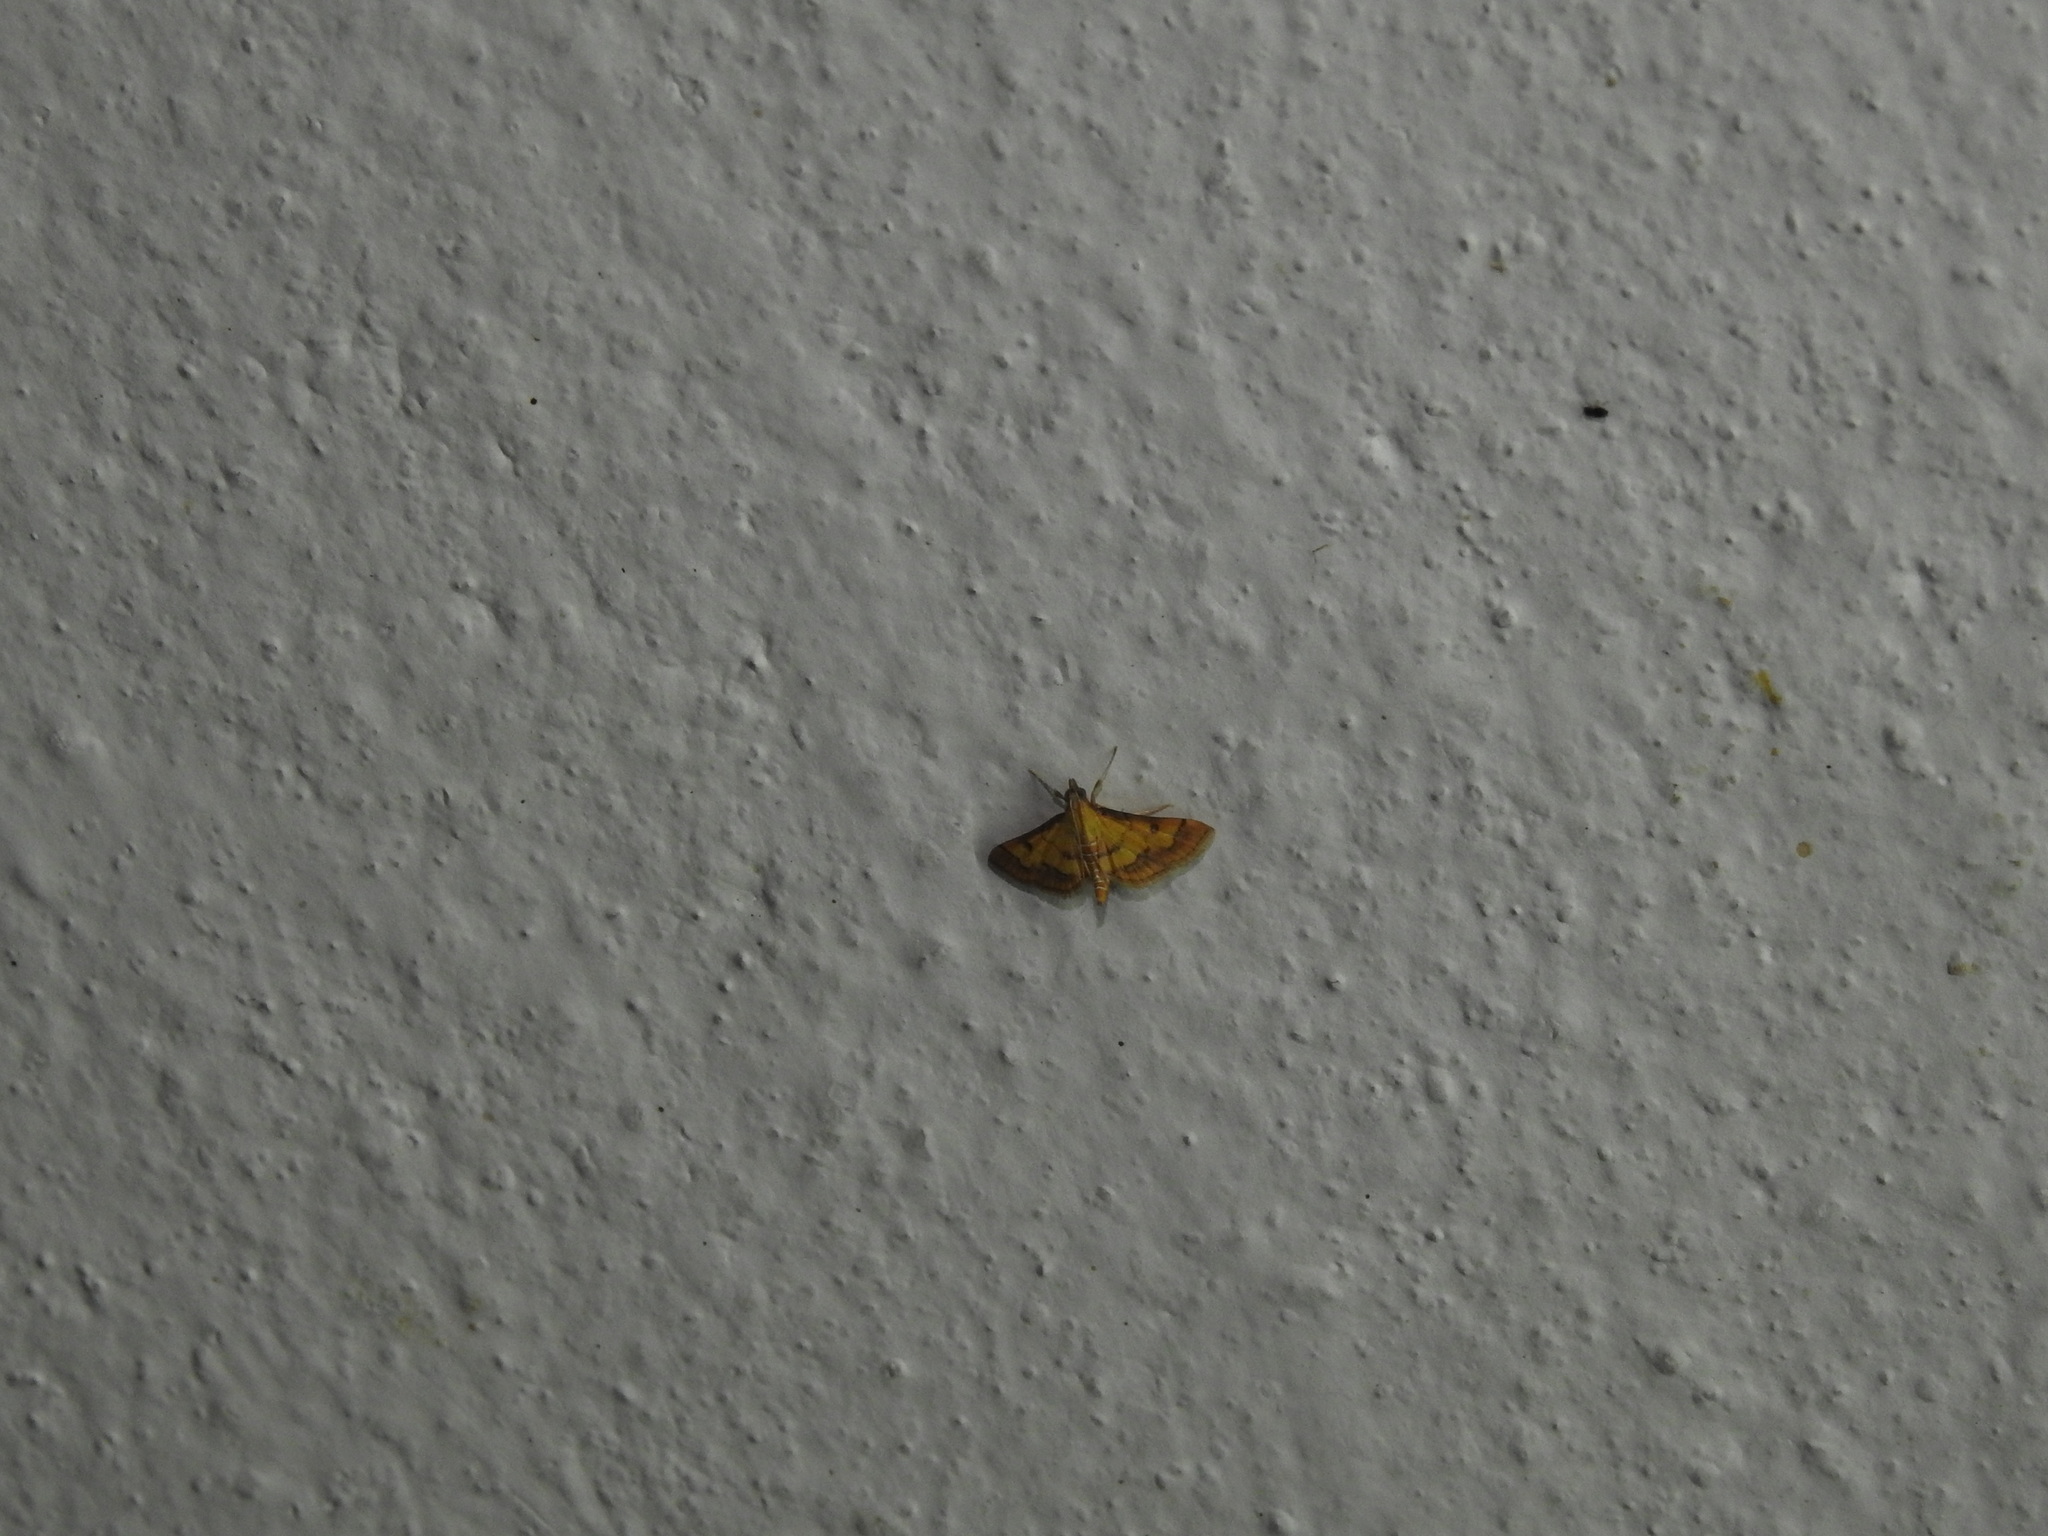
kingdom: Animalia
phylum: Arthropoda
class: Insecta
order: Lepidoptera
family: Crambidae
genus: Ischnurges
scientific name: Ischnurges luteomarginalis
